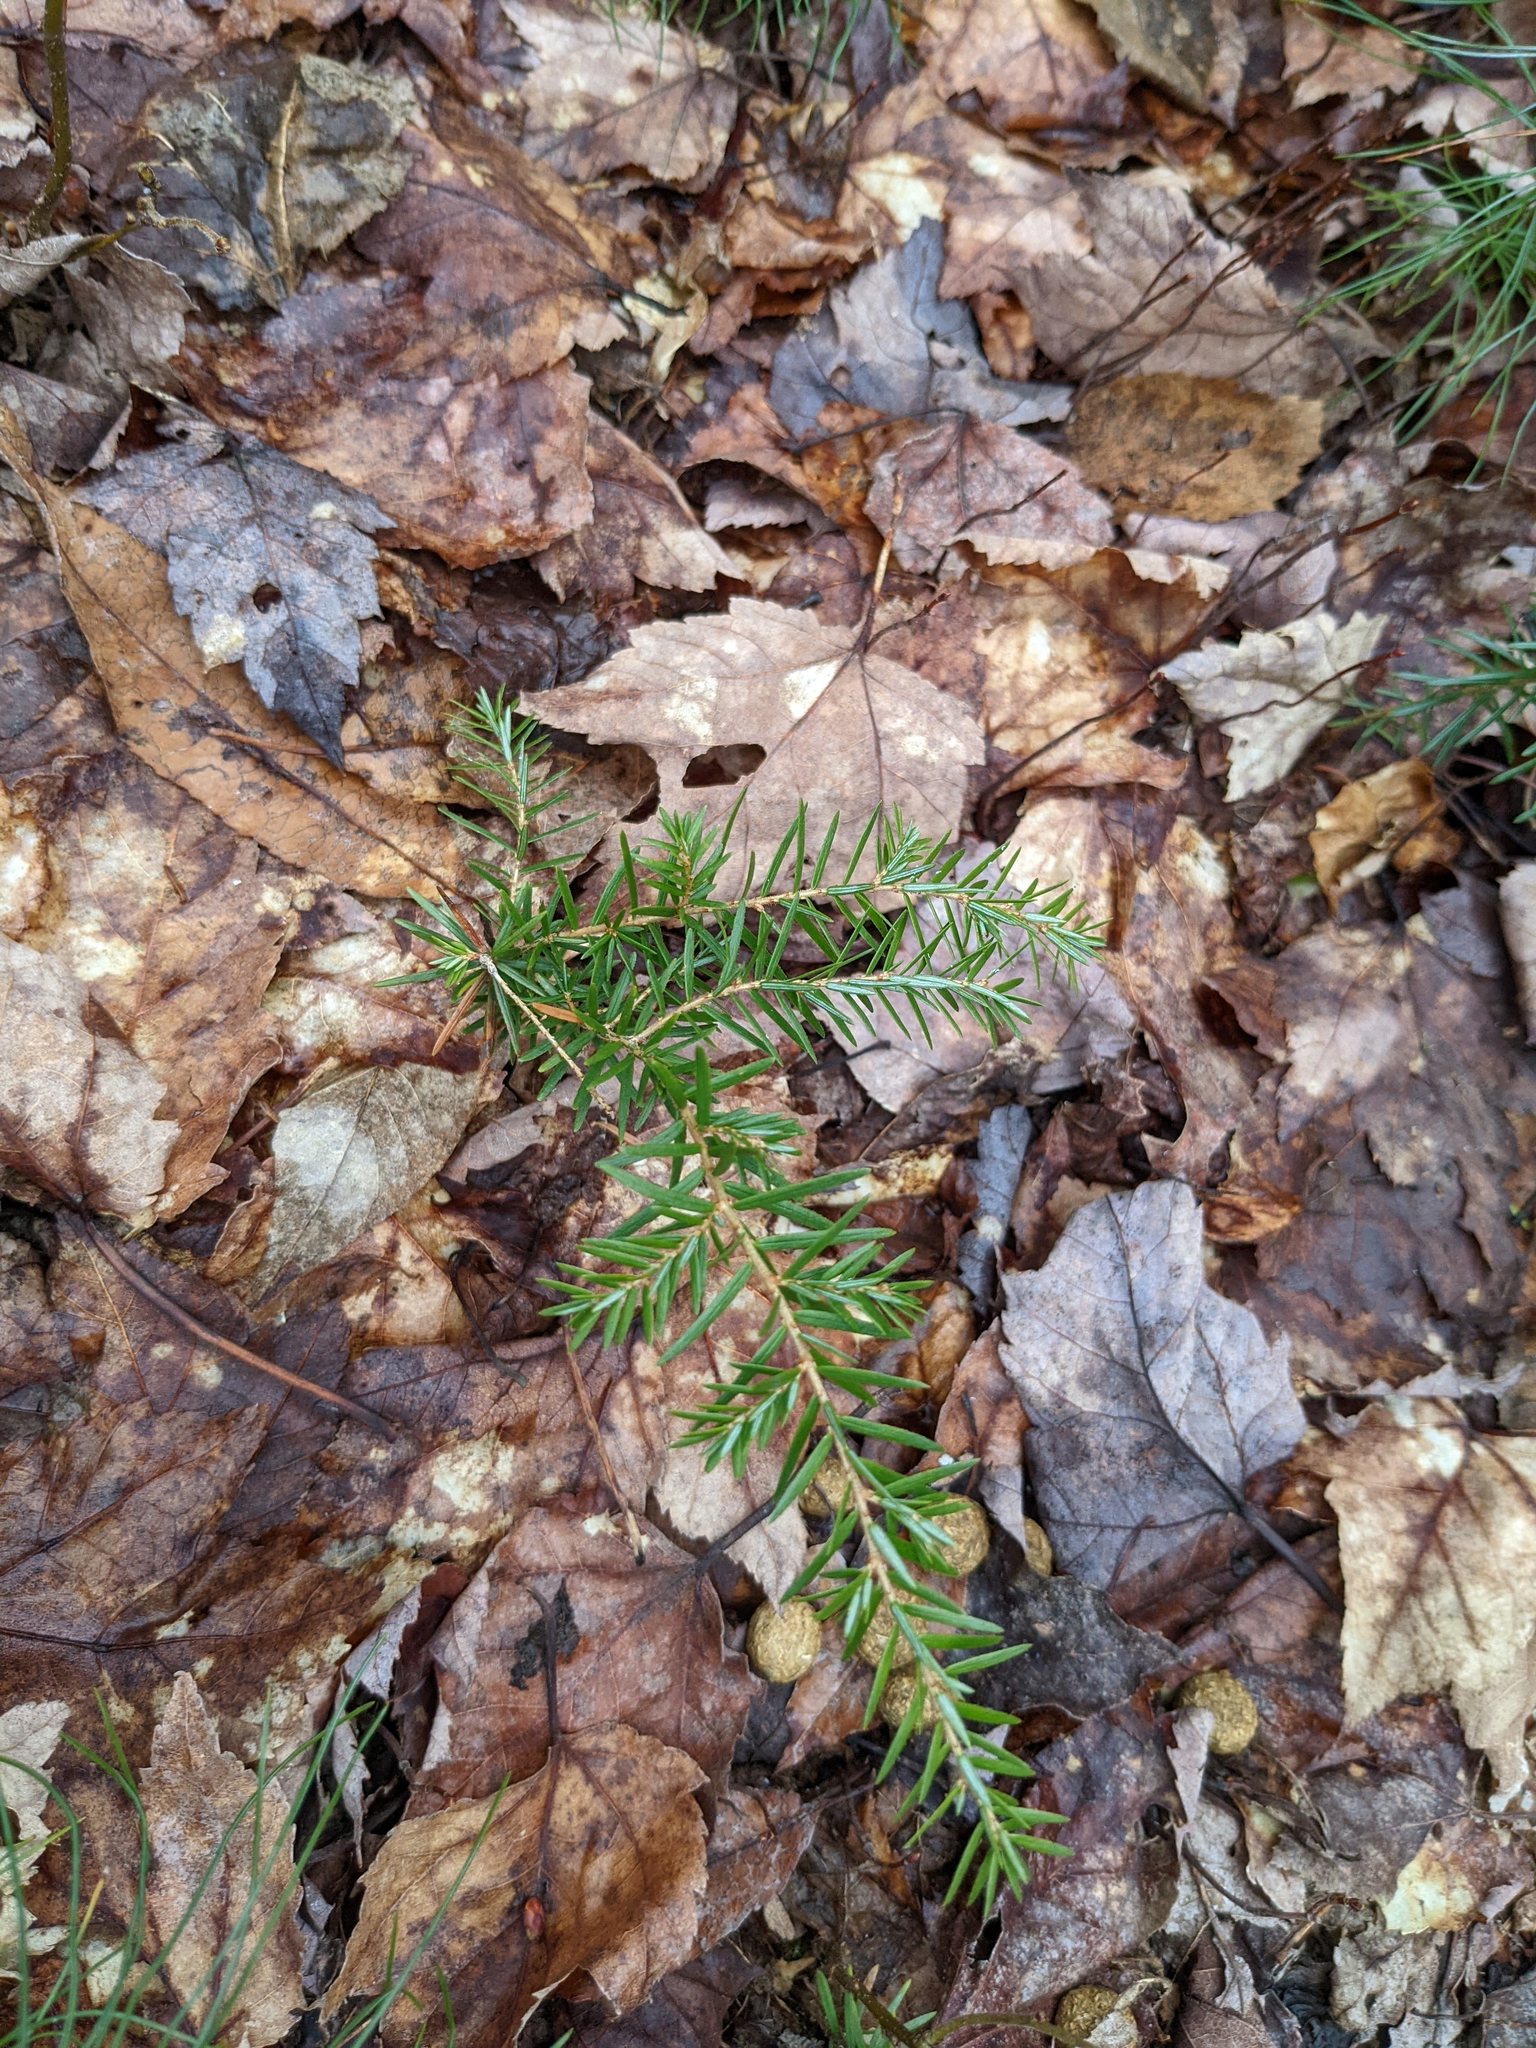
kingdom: Plantae
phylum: Tracheophyta
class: Pinopsida
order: Pinales
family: Pinaceae
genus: Tsuga
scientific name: Tsuga canadensis
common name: Eastern hemlock
